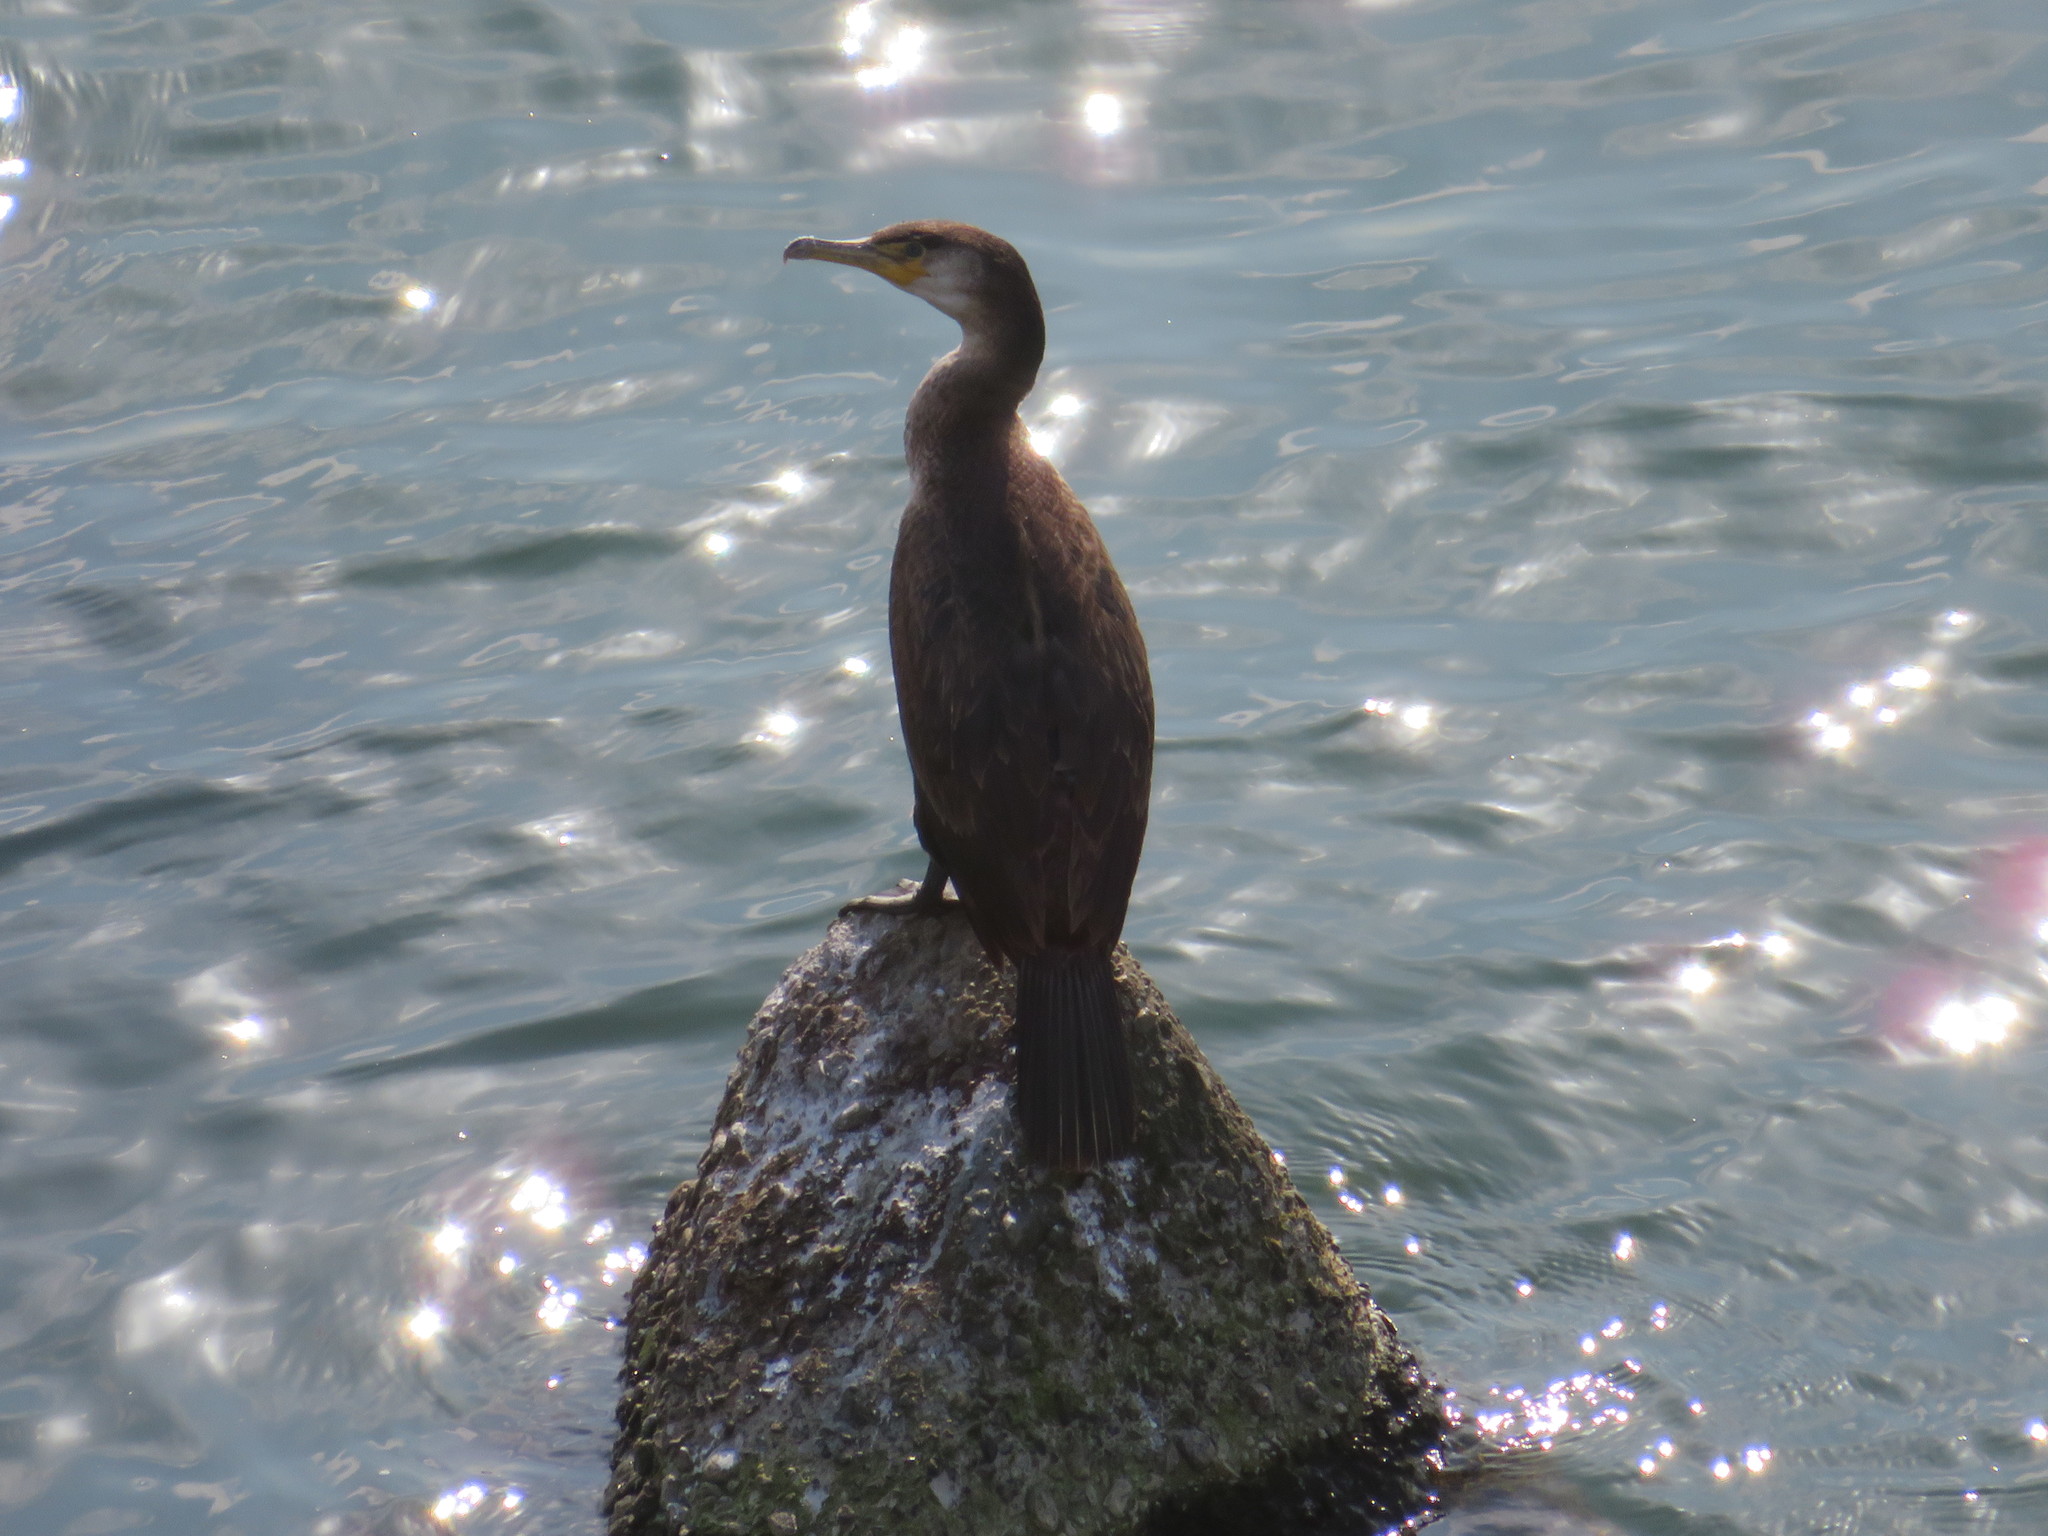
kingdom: Animalia
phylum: Chordata
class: Aves
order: Suliformes
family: Phalacrocoracidae
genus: Phalacrocorax
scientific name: Phalacrocorax carbo
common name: Great cormorant
